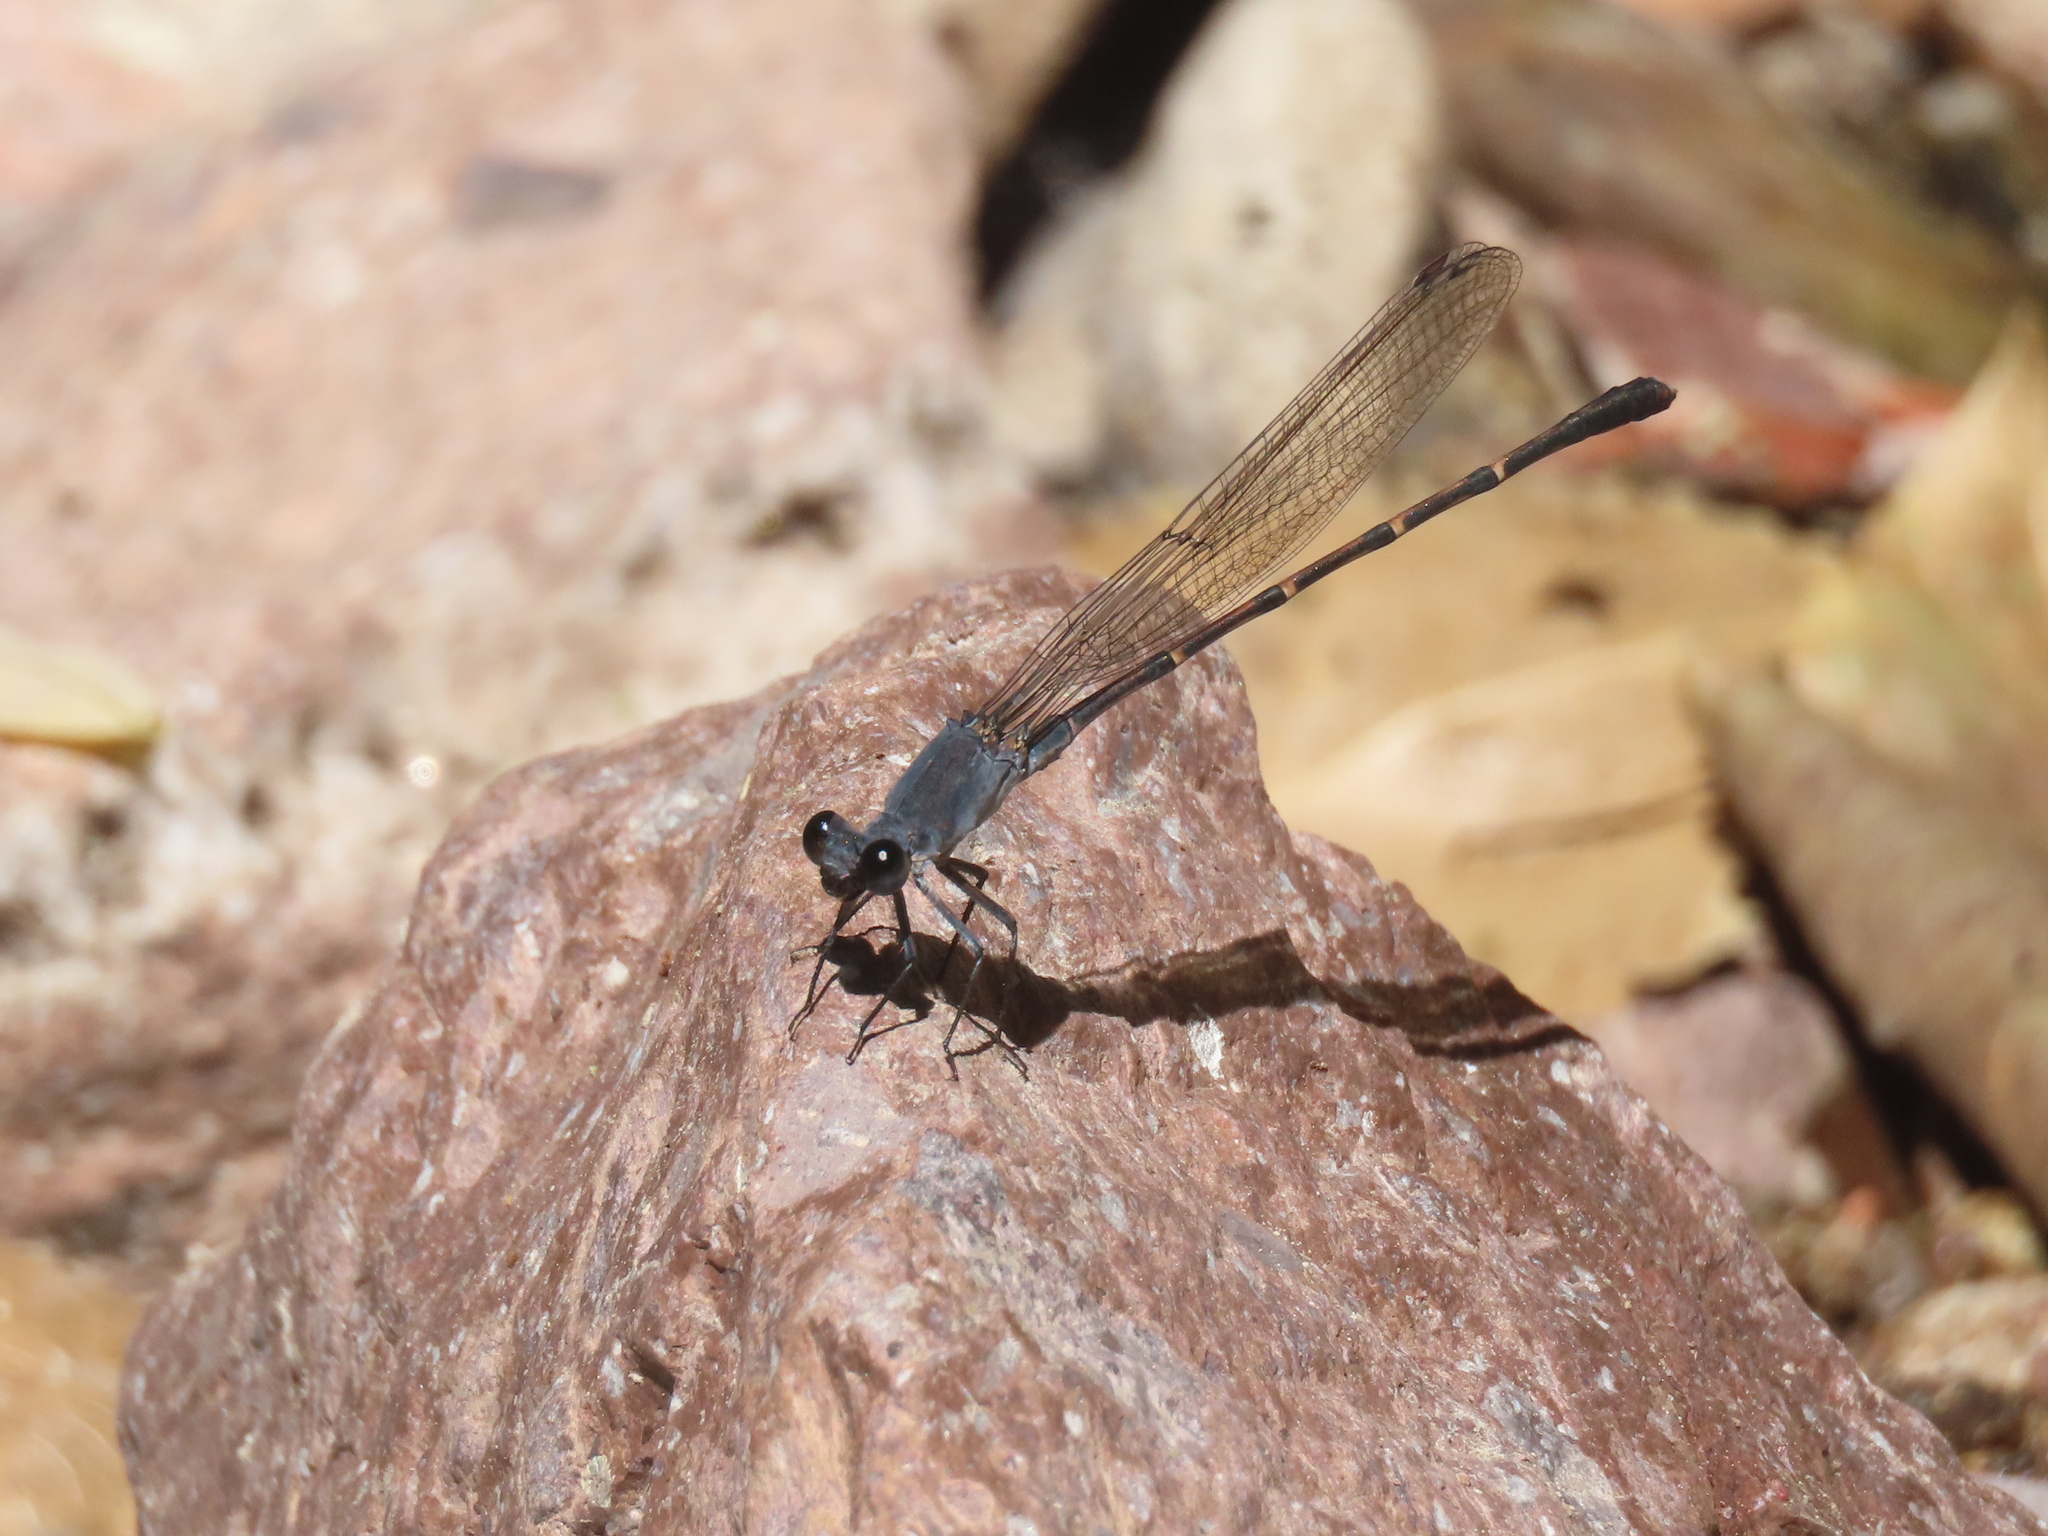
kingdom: Animalia
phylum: Arthropoda
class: Insecta
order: Odonata
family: Coenagrionidae
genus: Argia
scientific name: Argia lugens
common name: Sooty dancer
